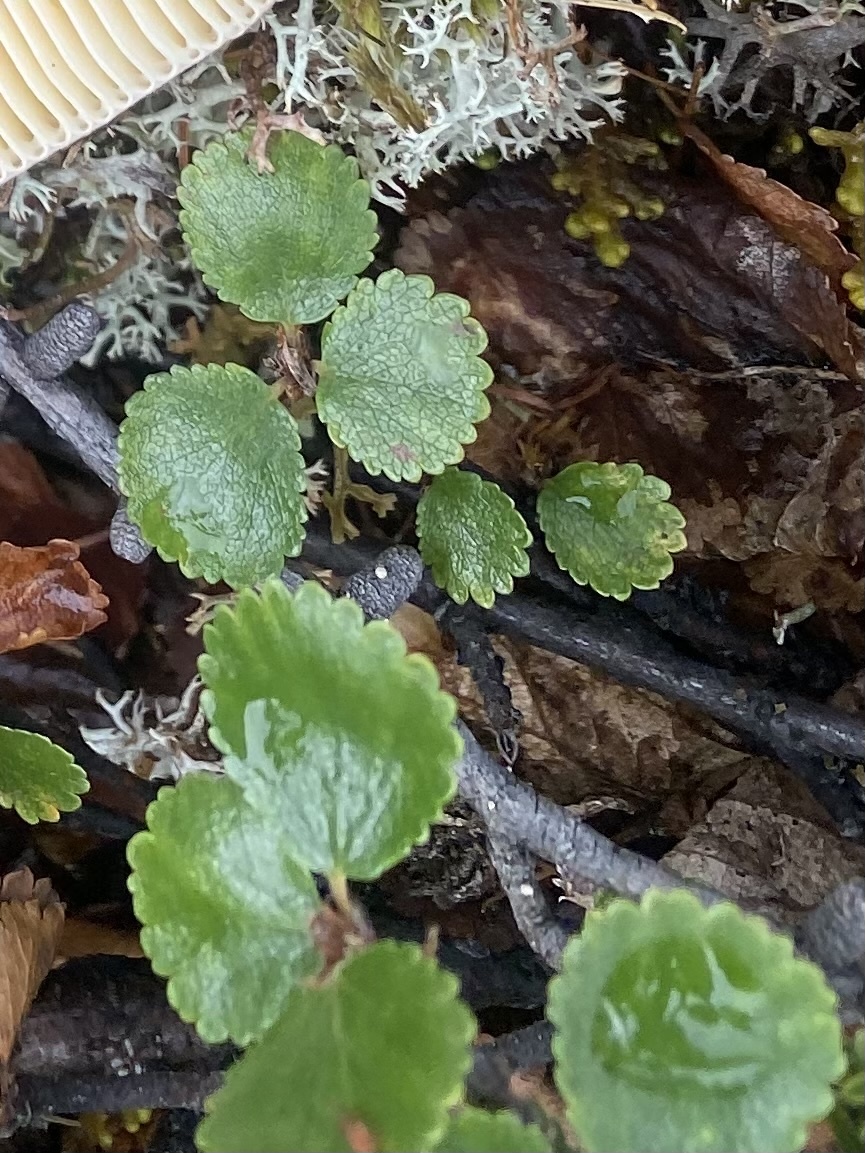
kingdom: Plantae
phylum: Tracheophyta
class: Magnoliopsida
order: Fagales
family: Betulaceae
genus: Betula
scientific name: Betula nana
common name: Arctic dwarf birch
